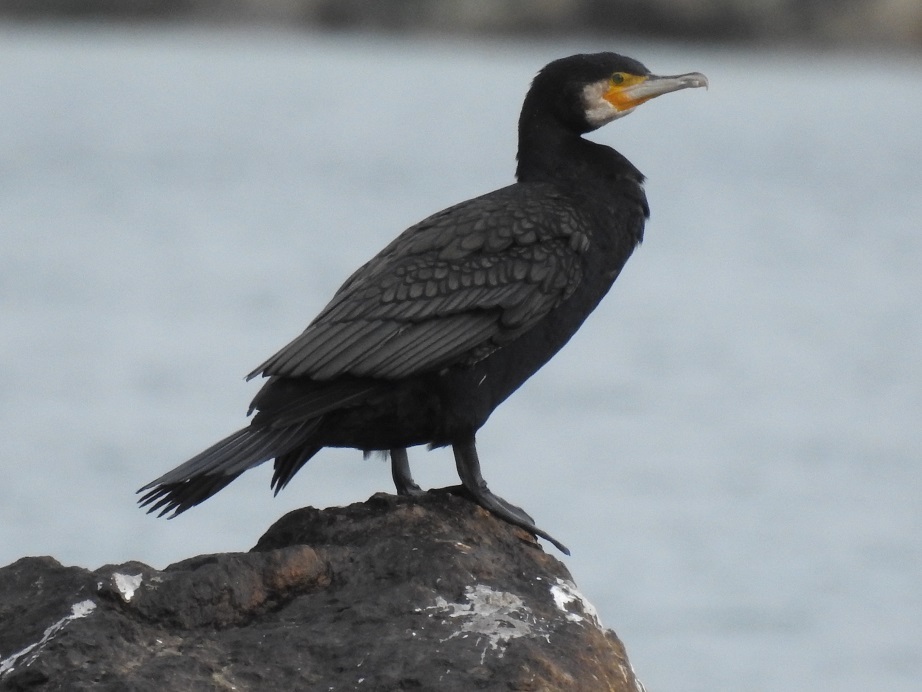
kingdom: Animalia
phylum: Chordata
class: Aves
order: Suliformes
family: Phalacrocoracidae
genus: Phalacrocorax
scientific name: Phalacrocorax carbo
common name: Great cormorant
